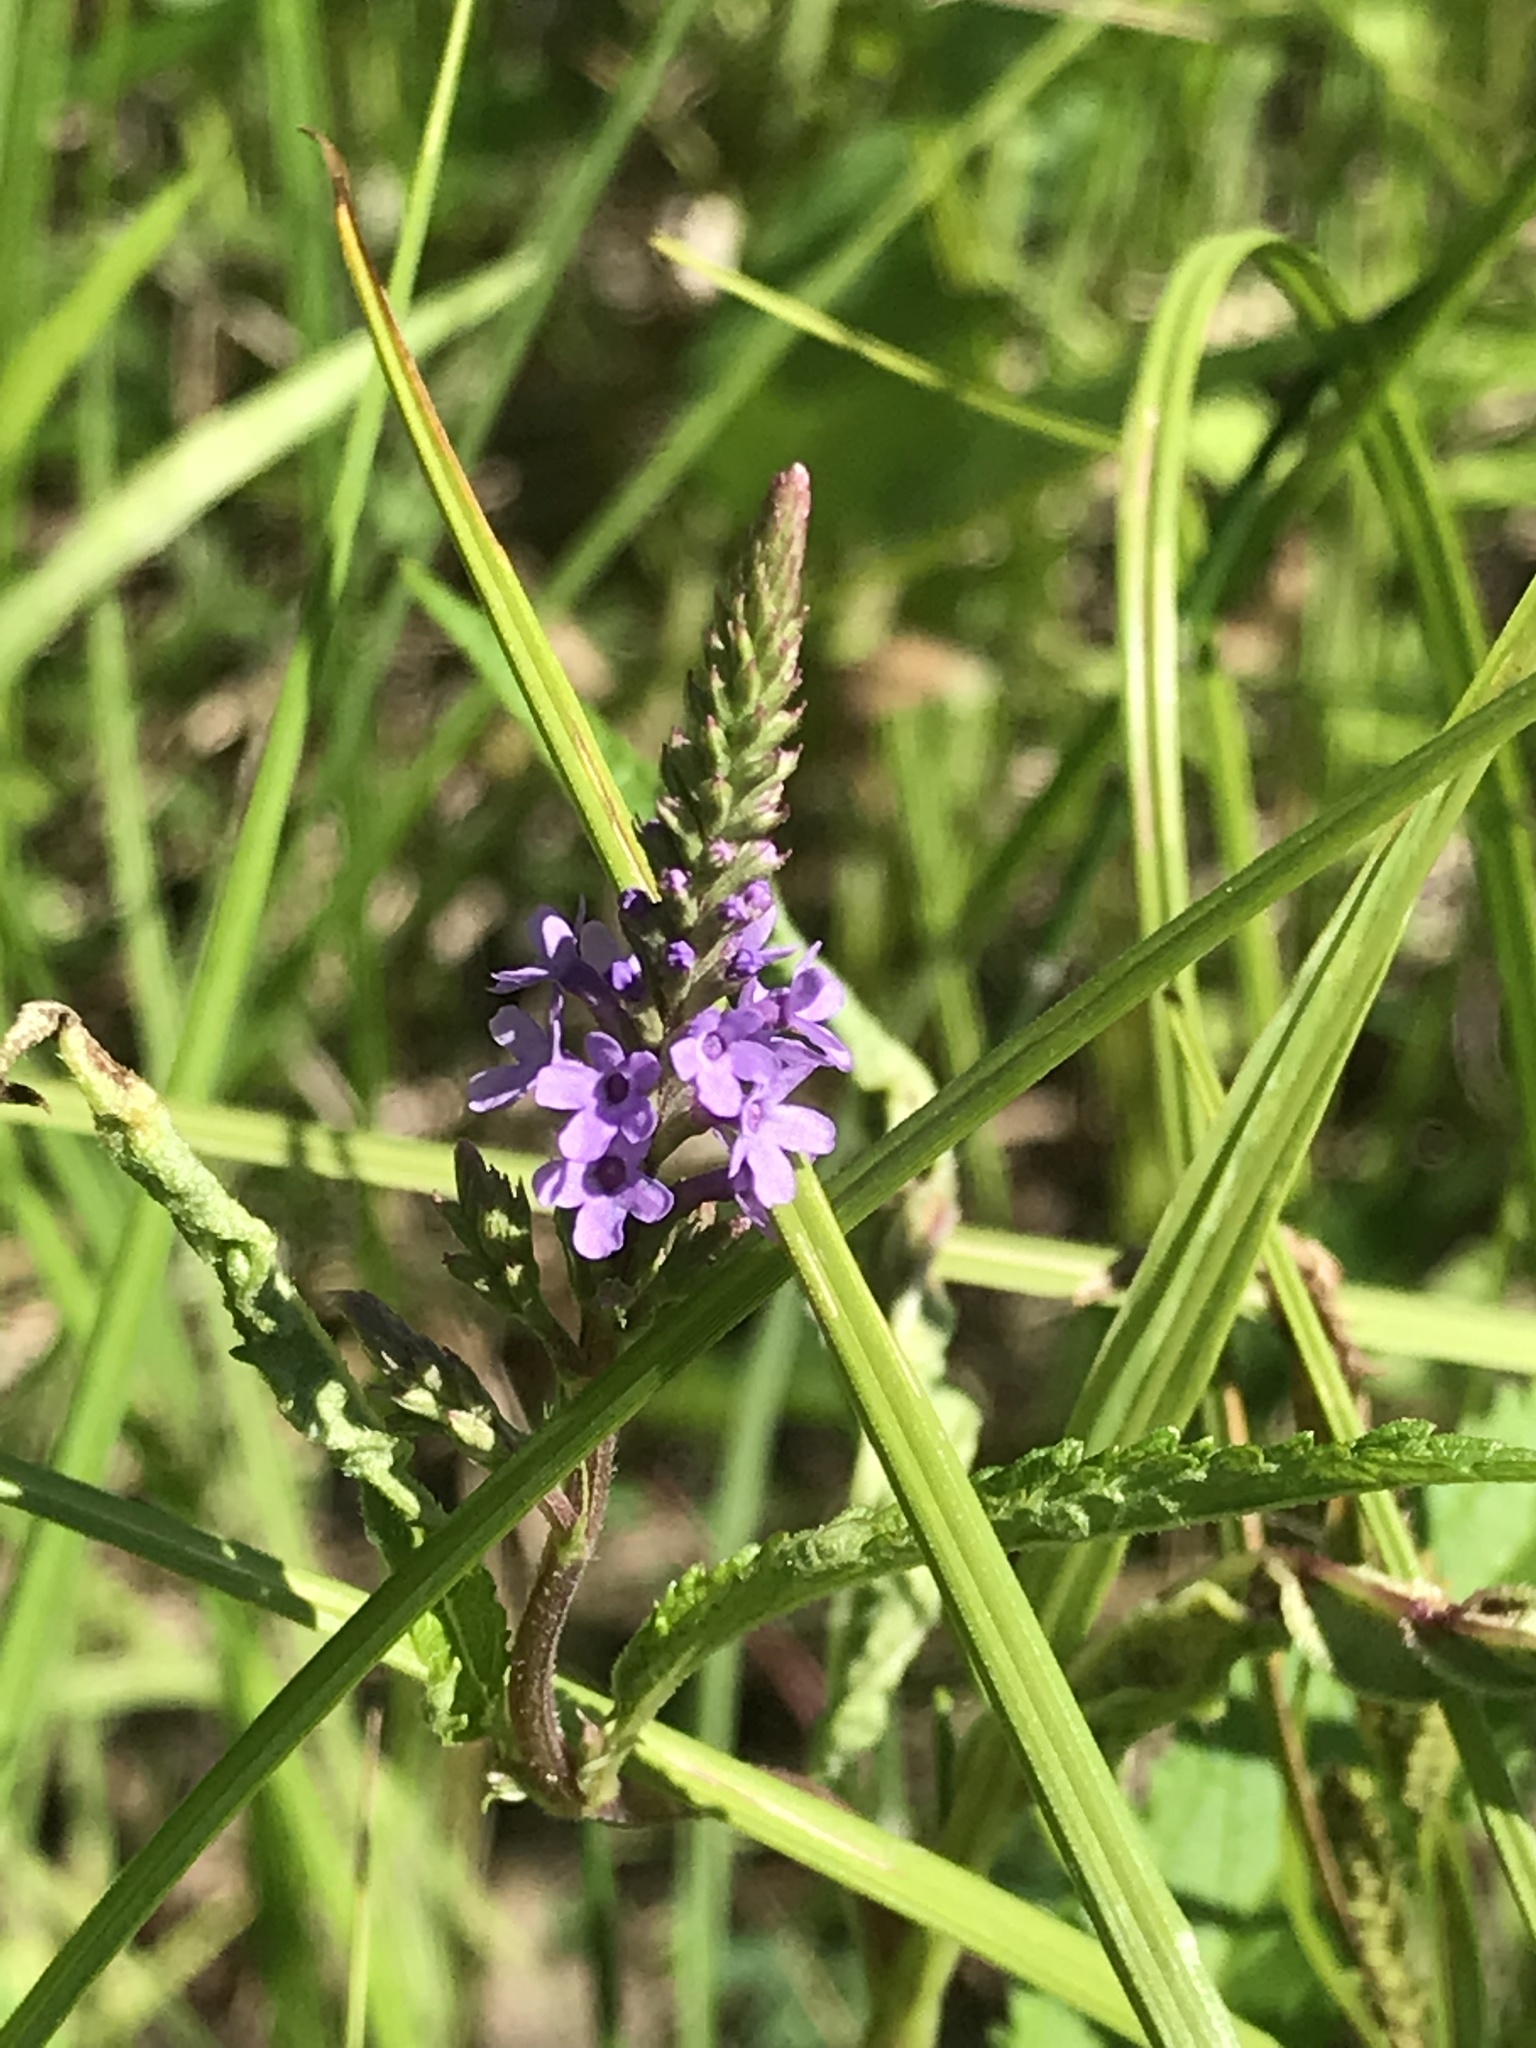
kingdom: Plantae
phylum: Tracheophyta
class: Magnoliopsida
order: Lamiales
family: Verbenaceae
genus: Verbena
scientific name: Verbena hastata
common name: American blue vervain
